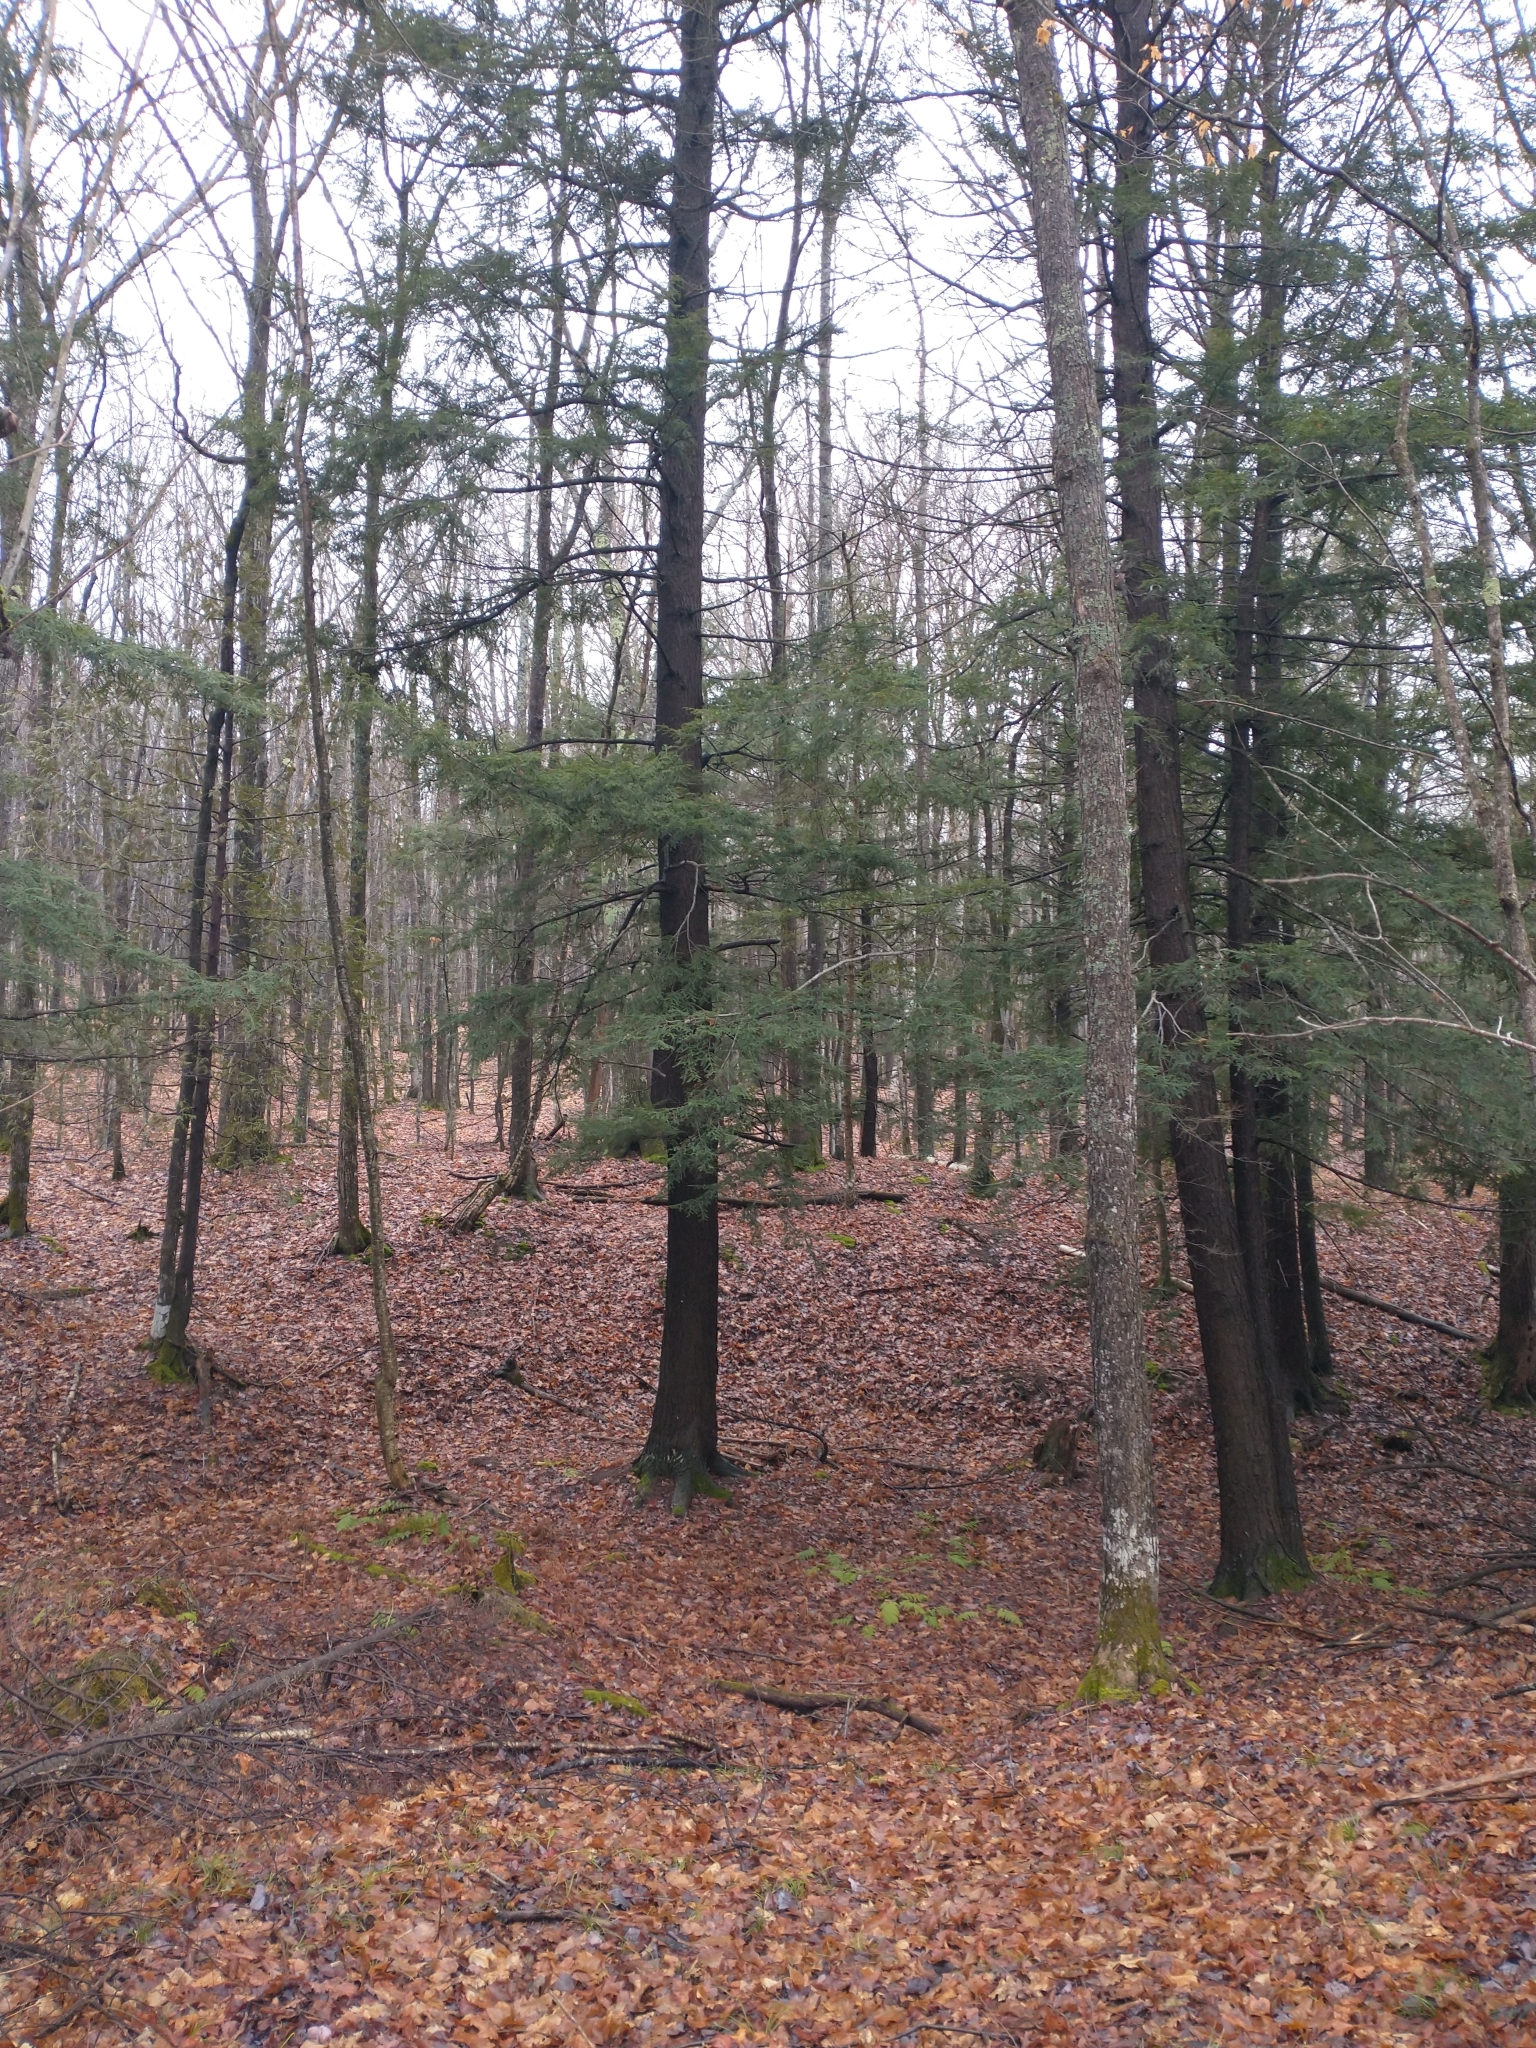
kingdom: Plantae
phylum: Tracheophyta
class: Pinopsida
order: Pinales
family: Pinaceae
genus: Tsuga
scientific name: Tsuga canadensis
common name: Eastern hemlock
